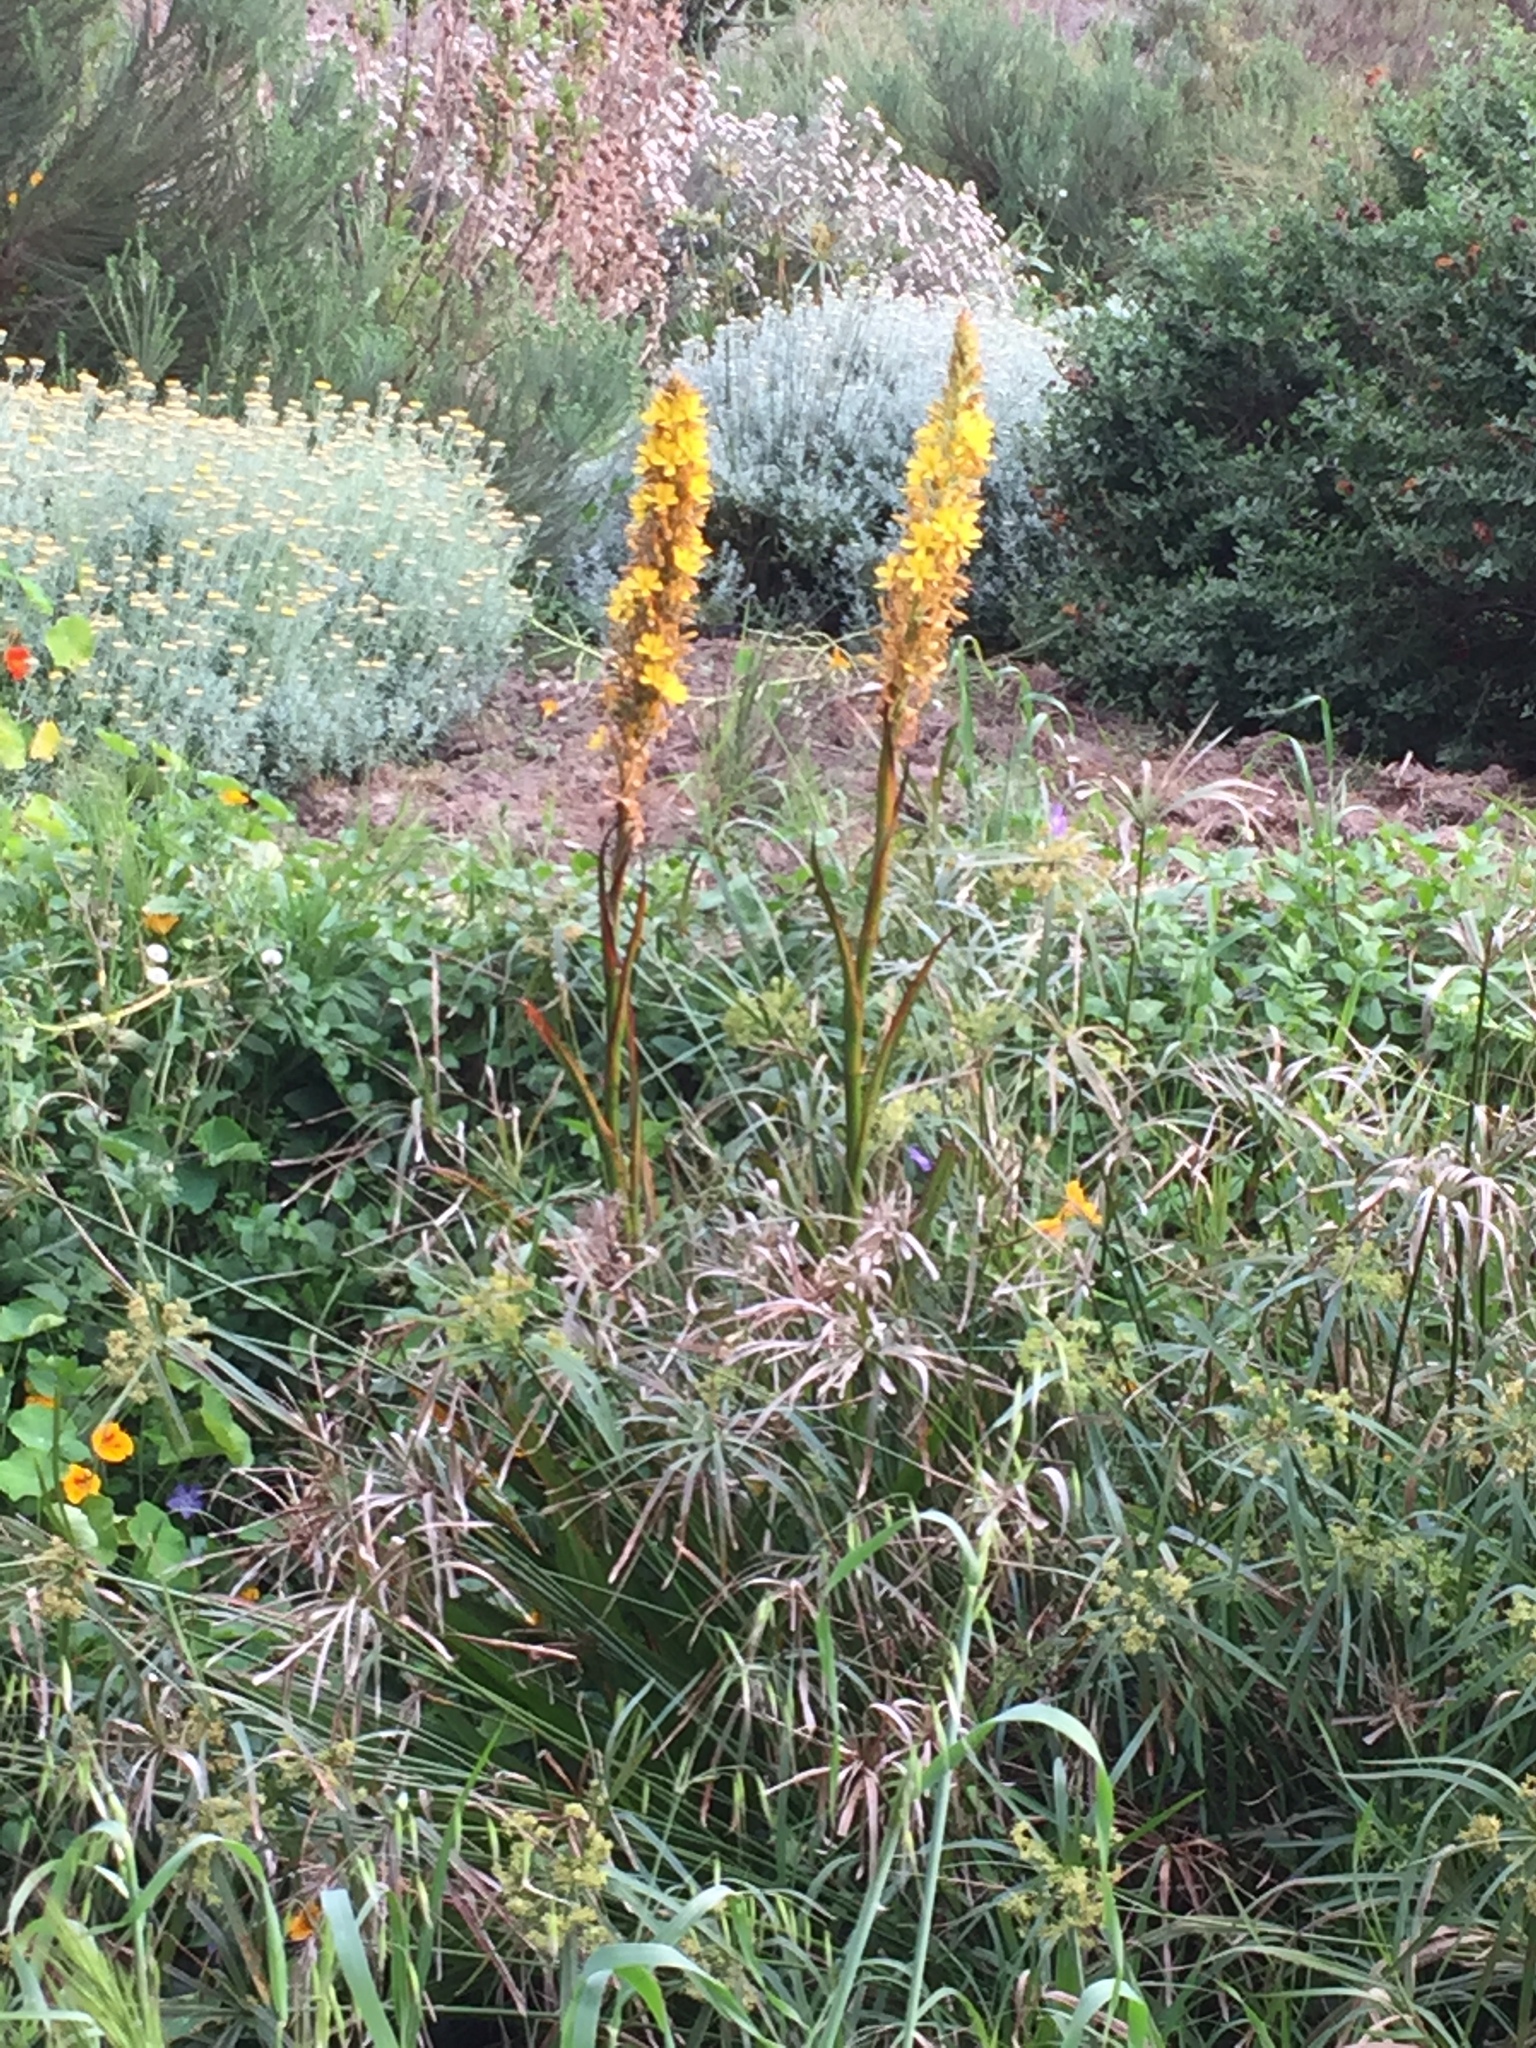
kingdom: Plantae
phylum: Tracheophyta
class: Liliopsida
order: Commelinales
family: Haemodoraceae
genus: Wachendorfia
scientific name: Wachendorfia thyrsiflora
